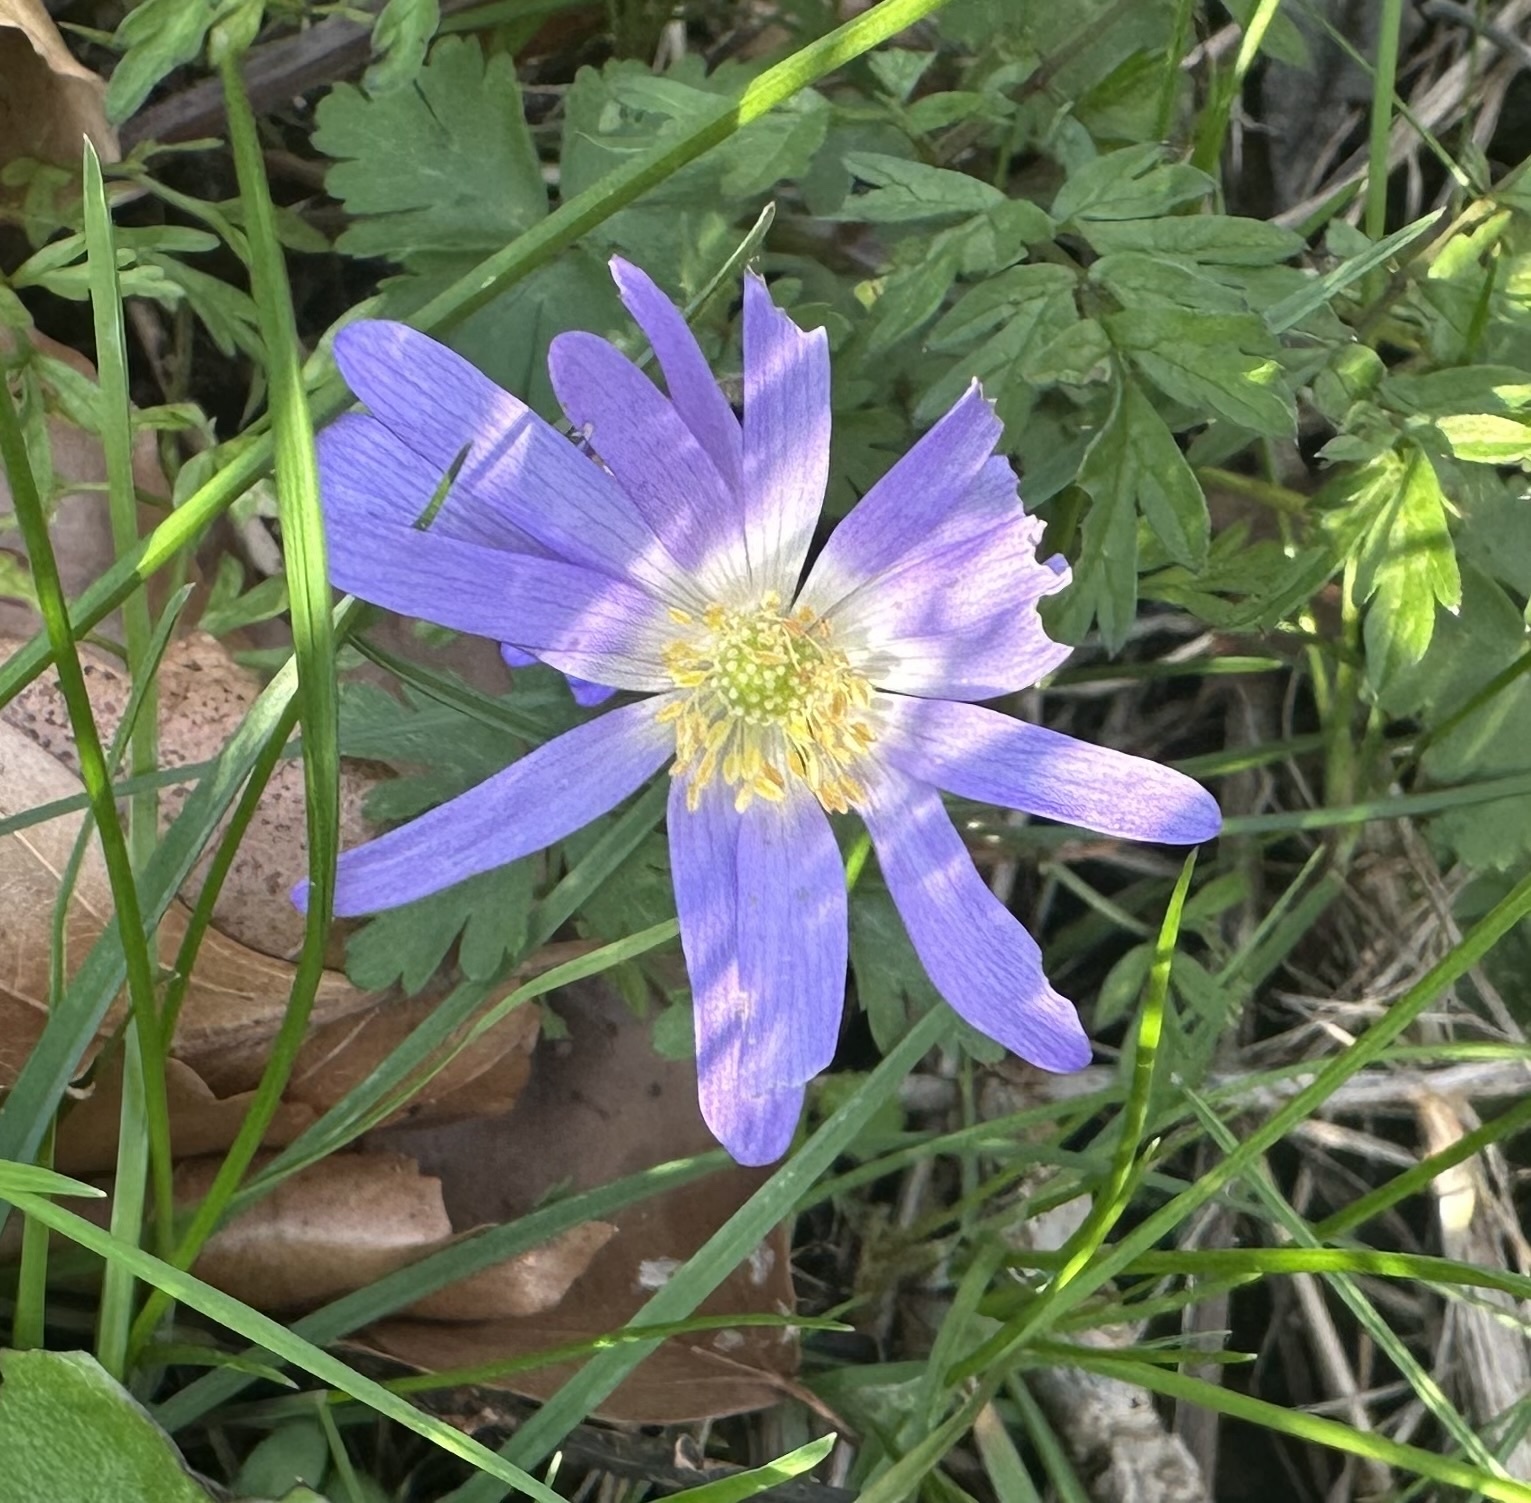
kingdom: Plantae
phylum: Tracheophyta
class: Magnoliopsida
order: Ranunculales
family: Ranunculaceae
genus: Anemone
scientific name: Anemone blanda
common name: Balkan anemone
